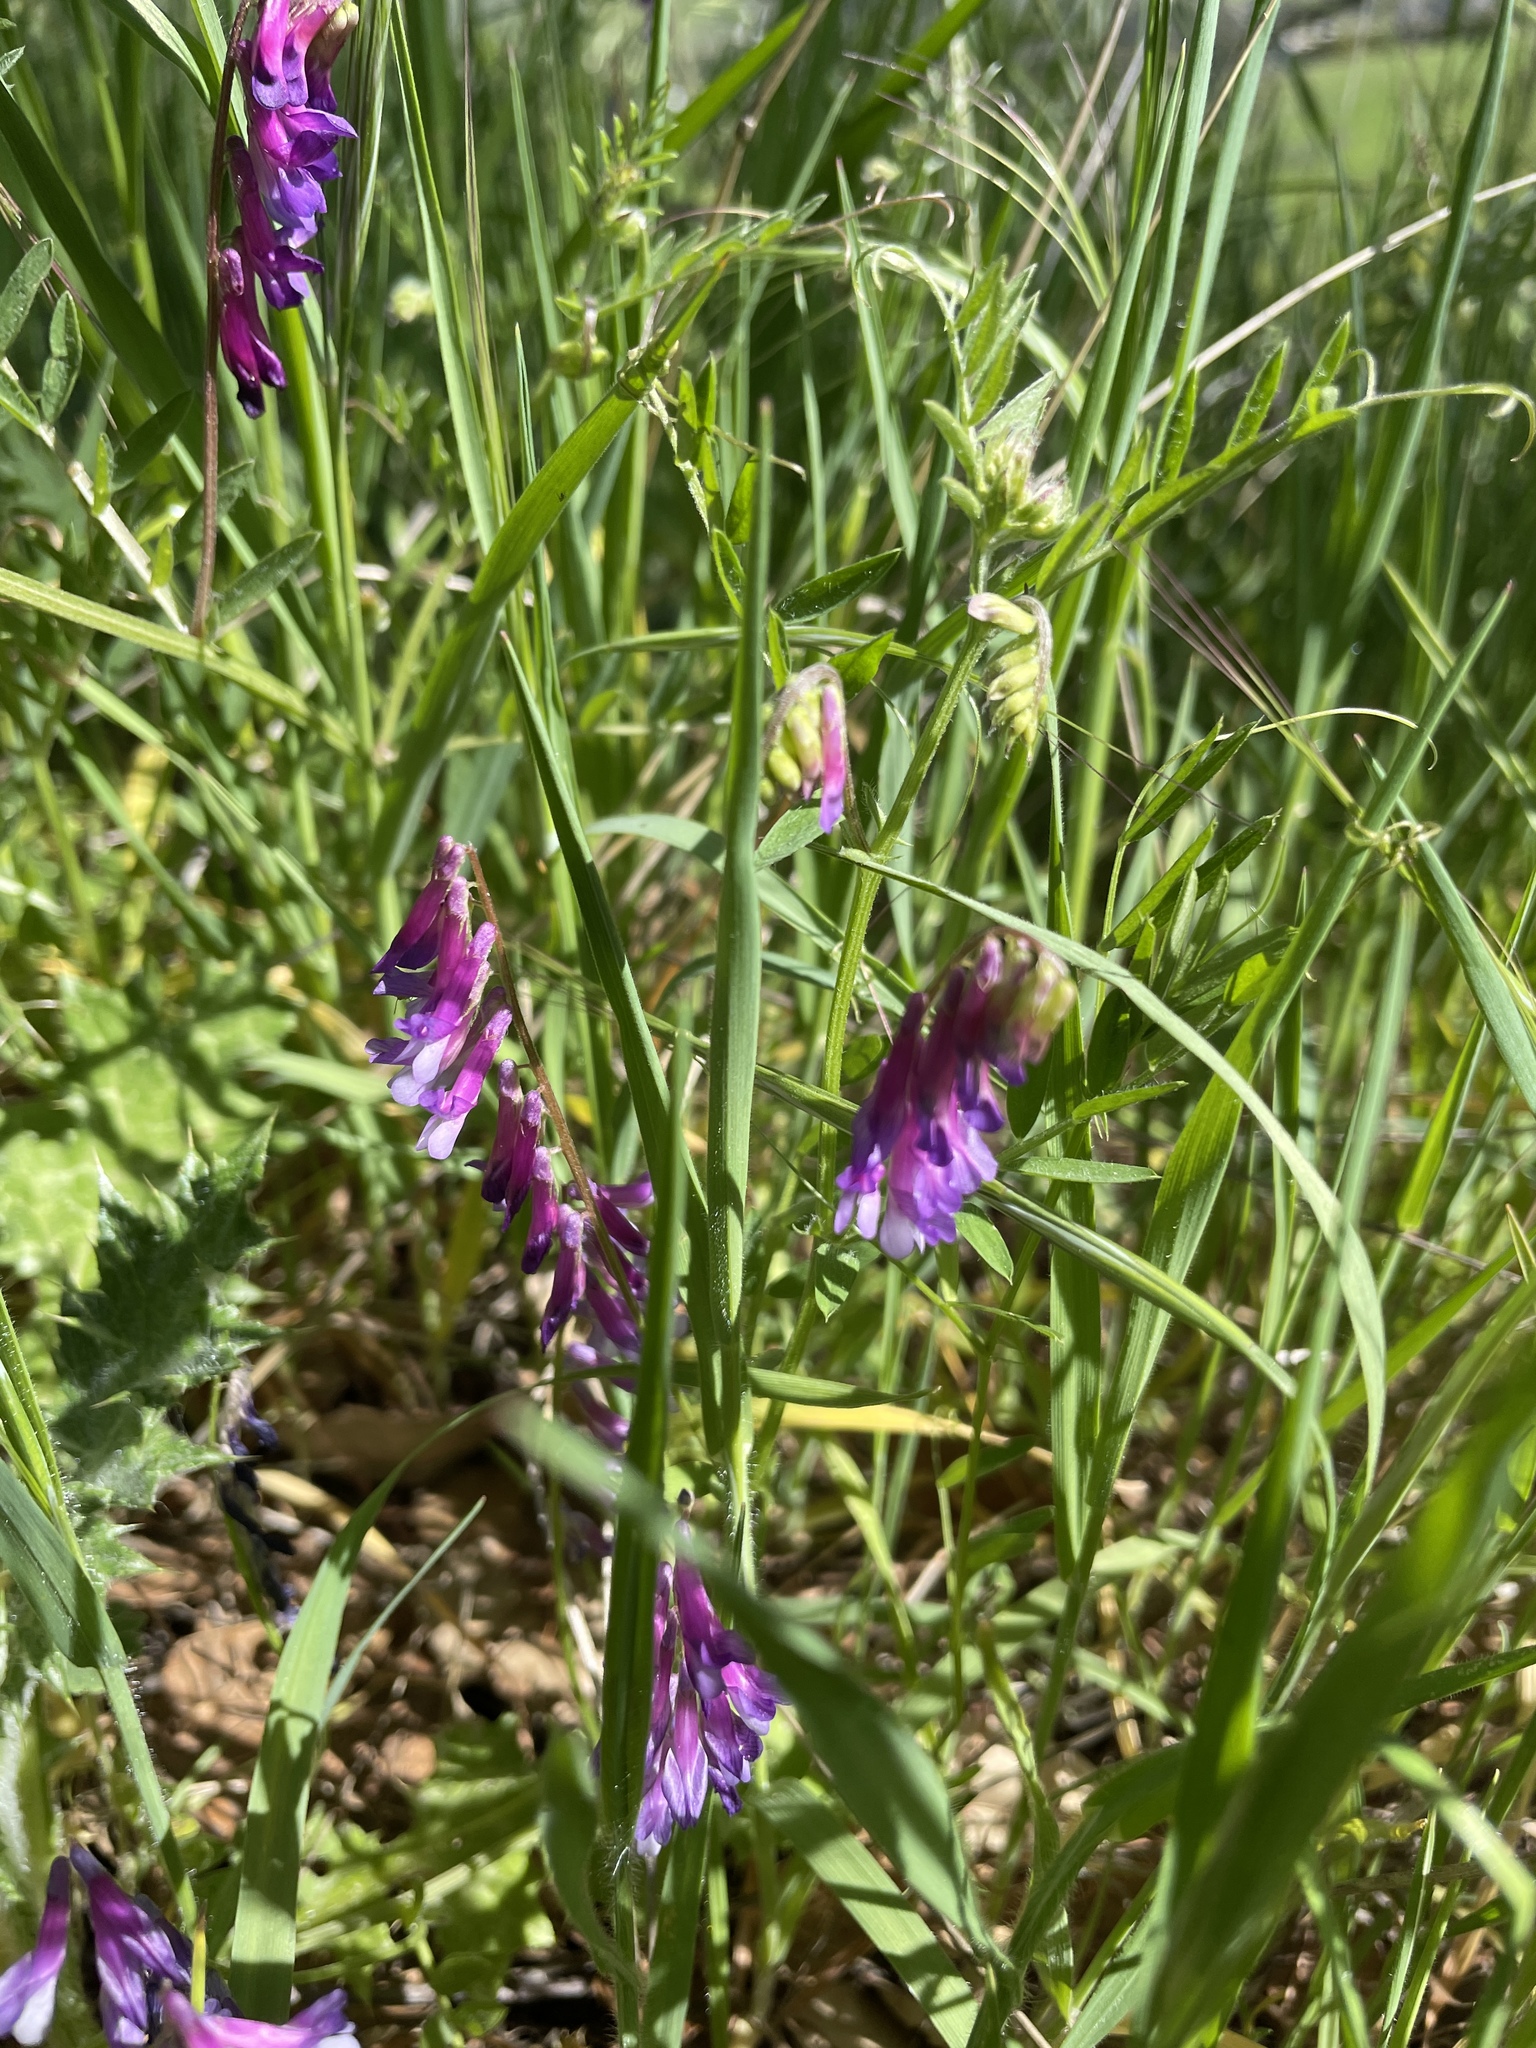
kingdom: Plantae
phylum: Tracheophyta
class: Magnoliopsida
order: Fabales
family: Fabaceae
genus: Vicia
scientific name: Vicia villosa
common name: Fodder vetch
